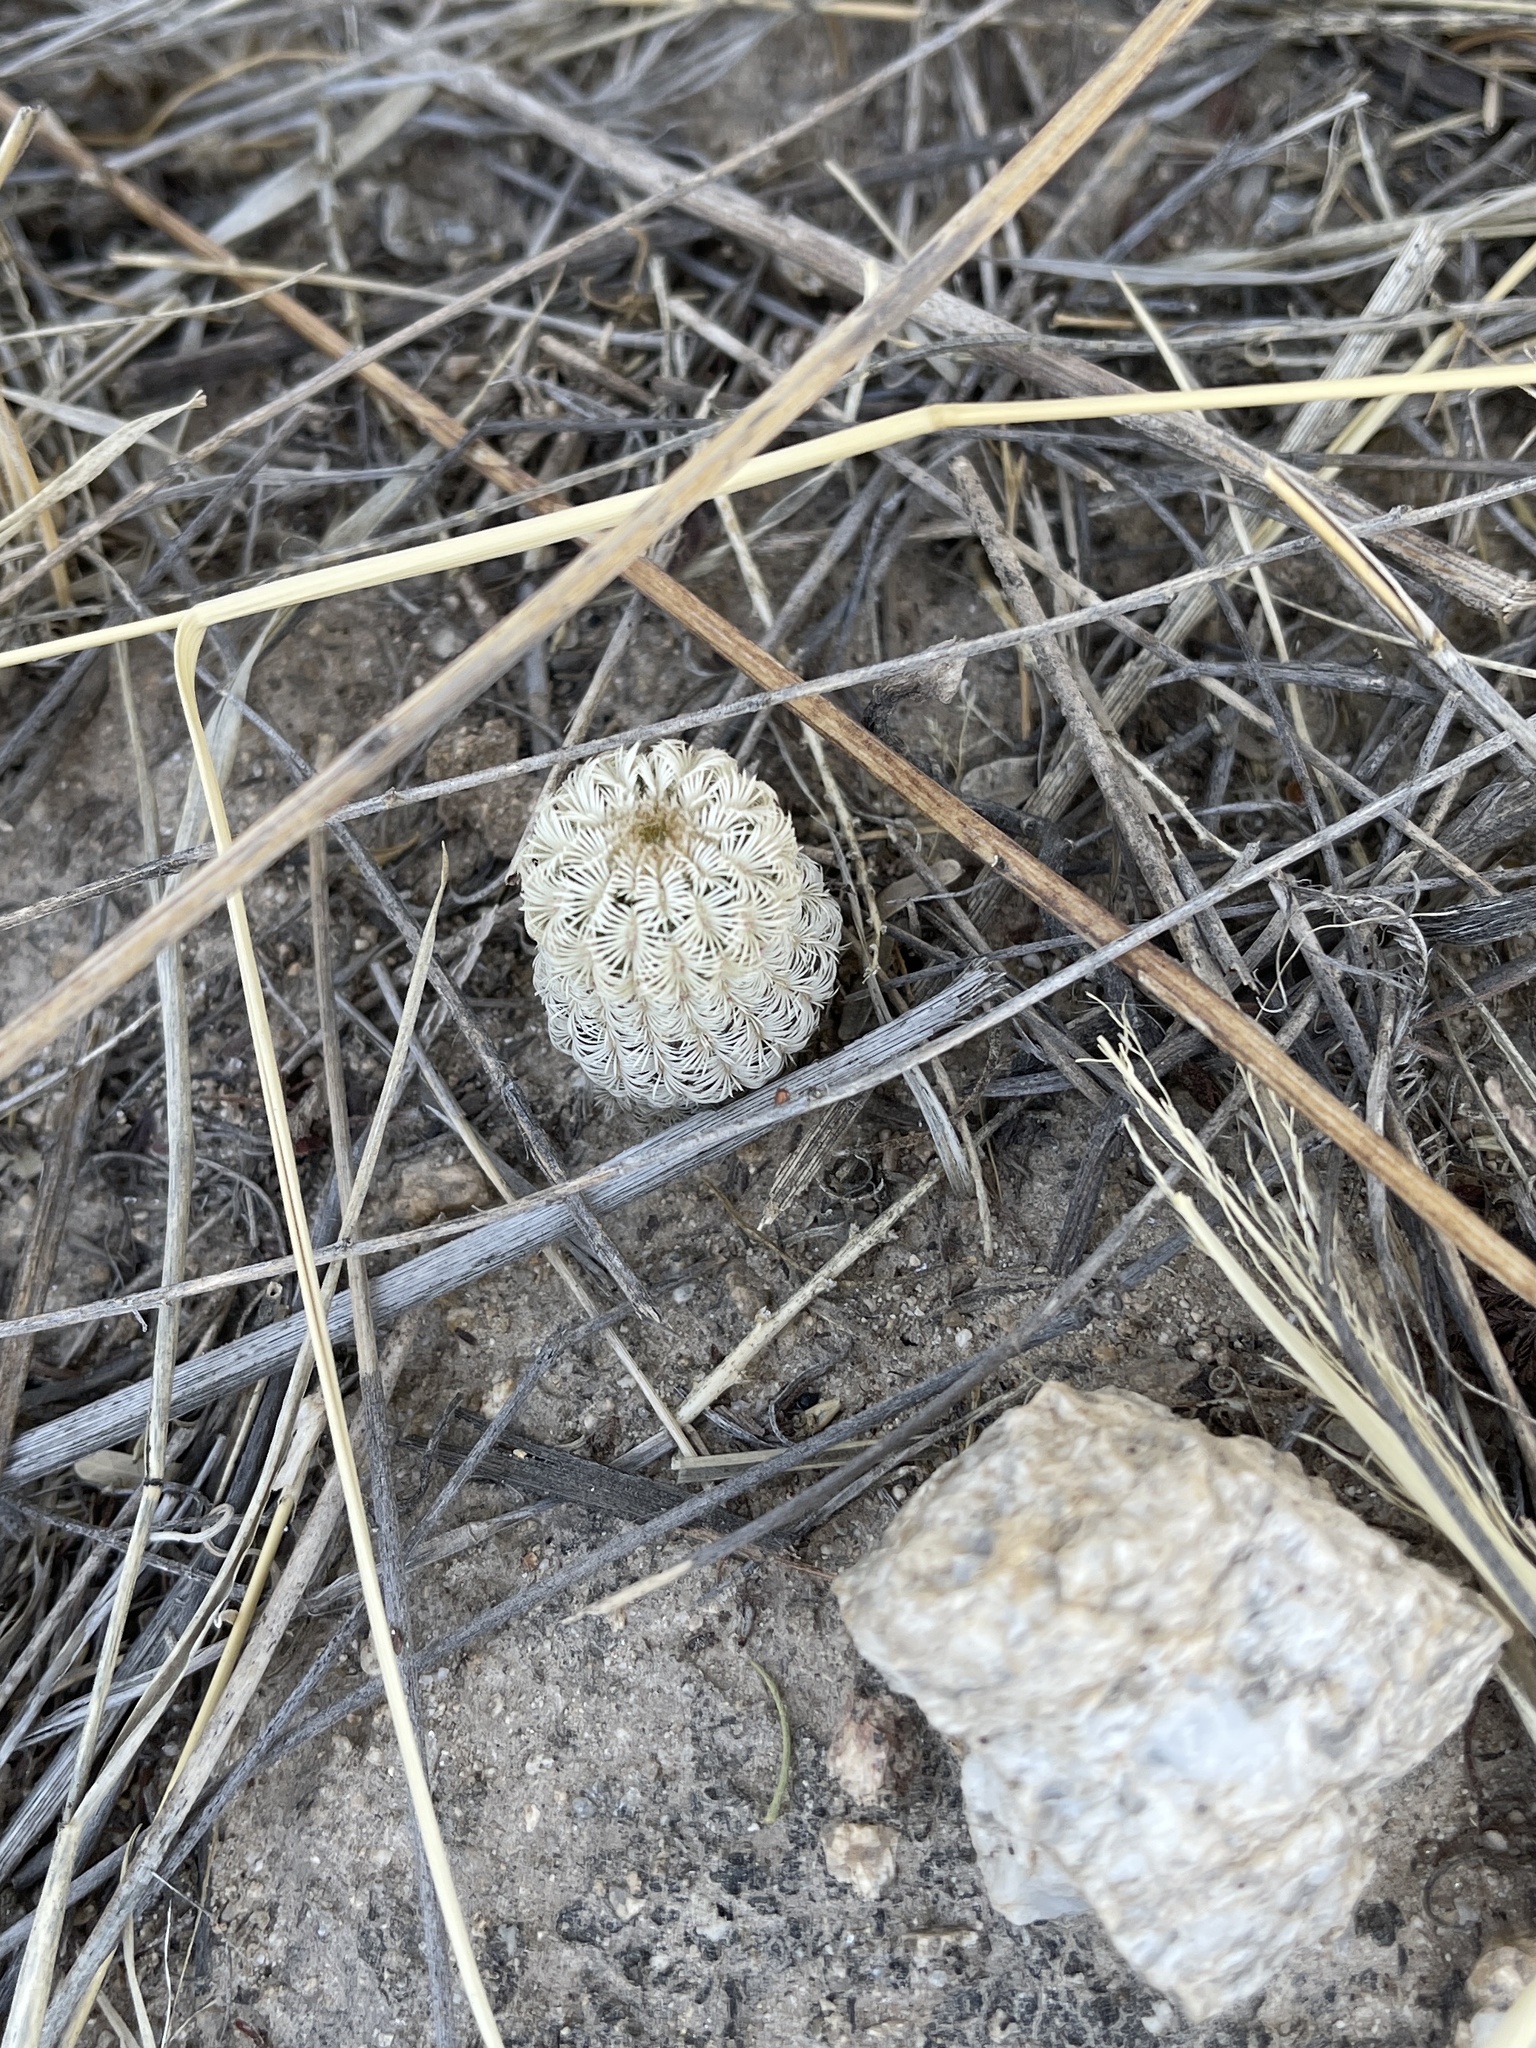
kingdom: Plantae
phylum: Tracheophyta
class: Magnoliopsida
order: Caryophyllales
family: Cactaceae
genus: Echinocereus
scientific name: Echinocereus rigidissimus
